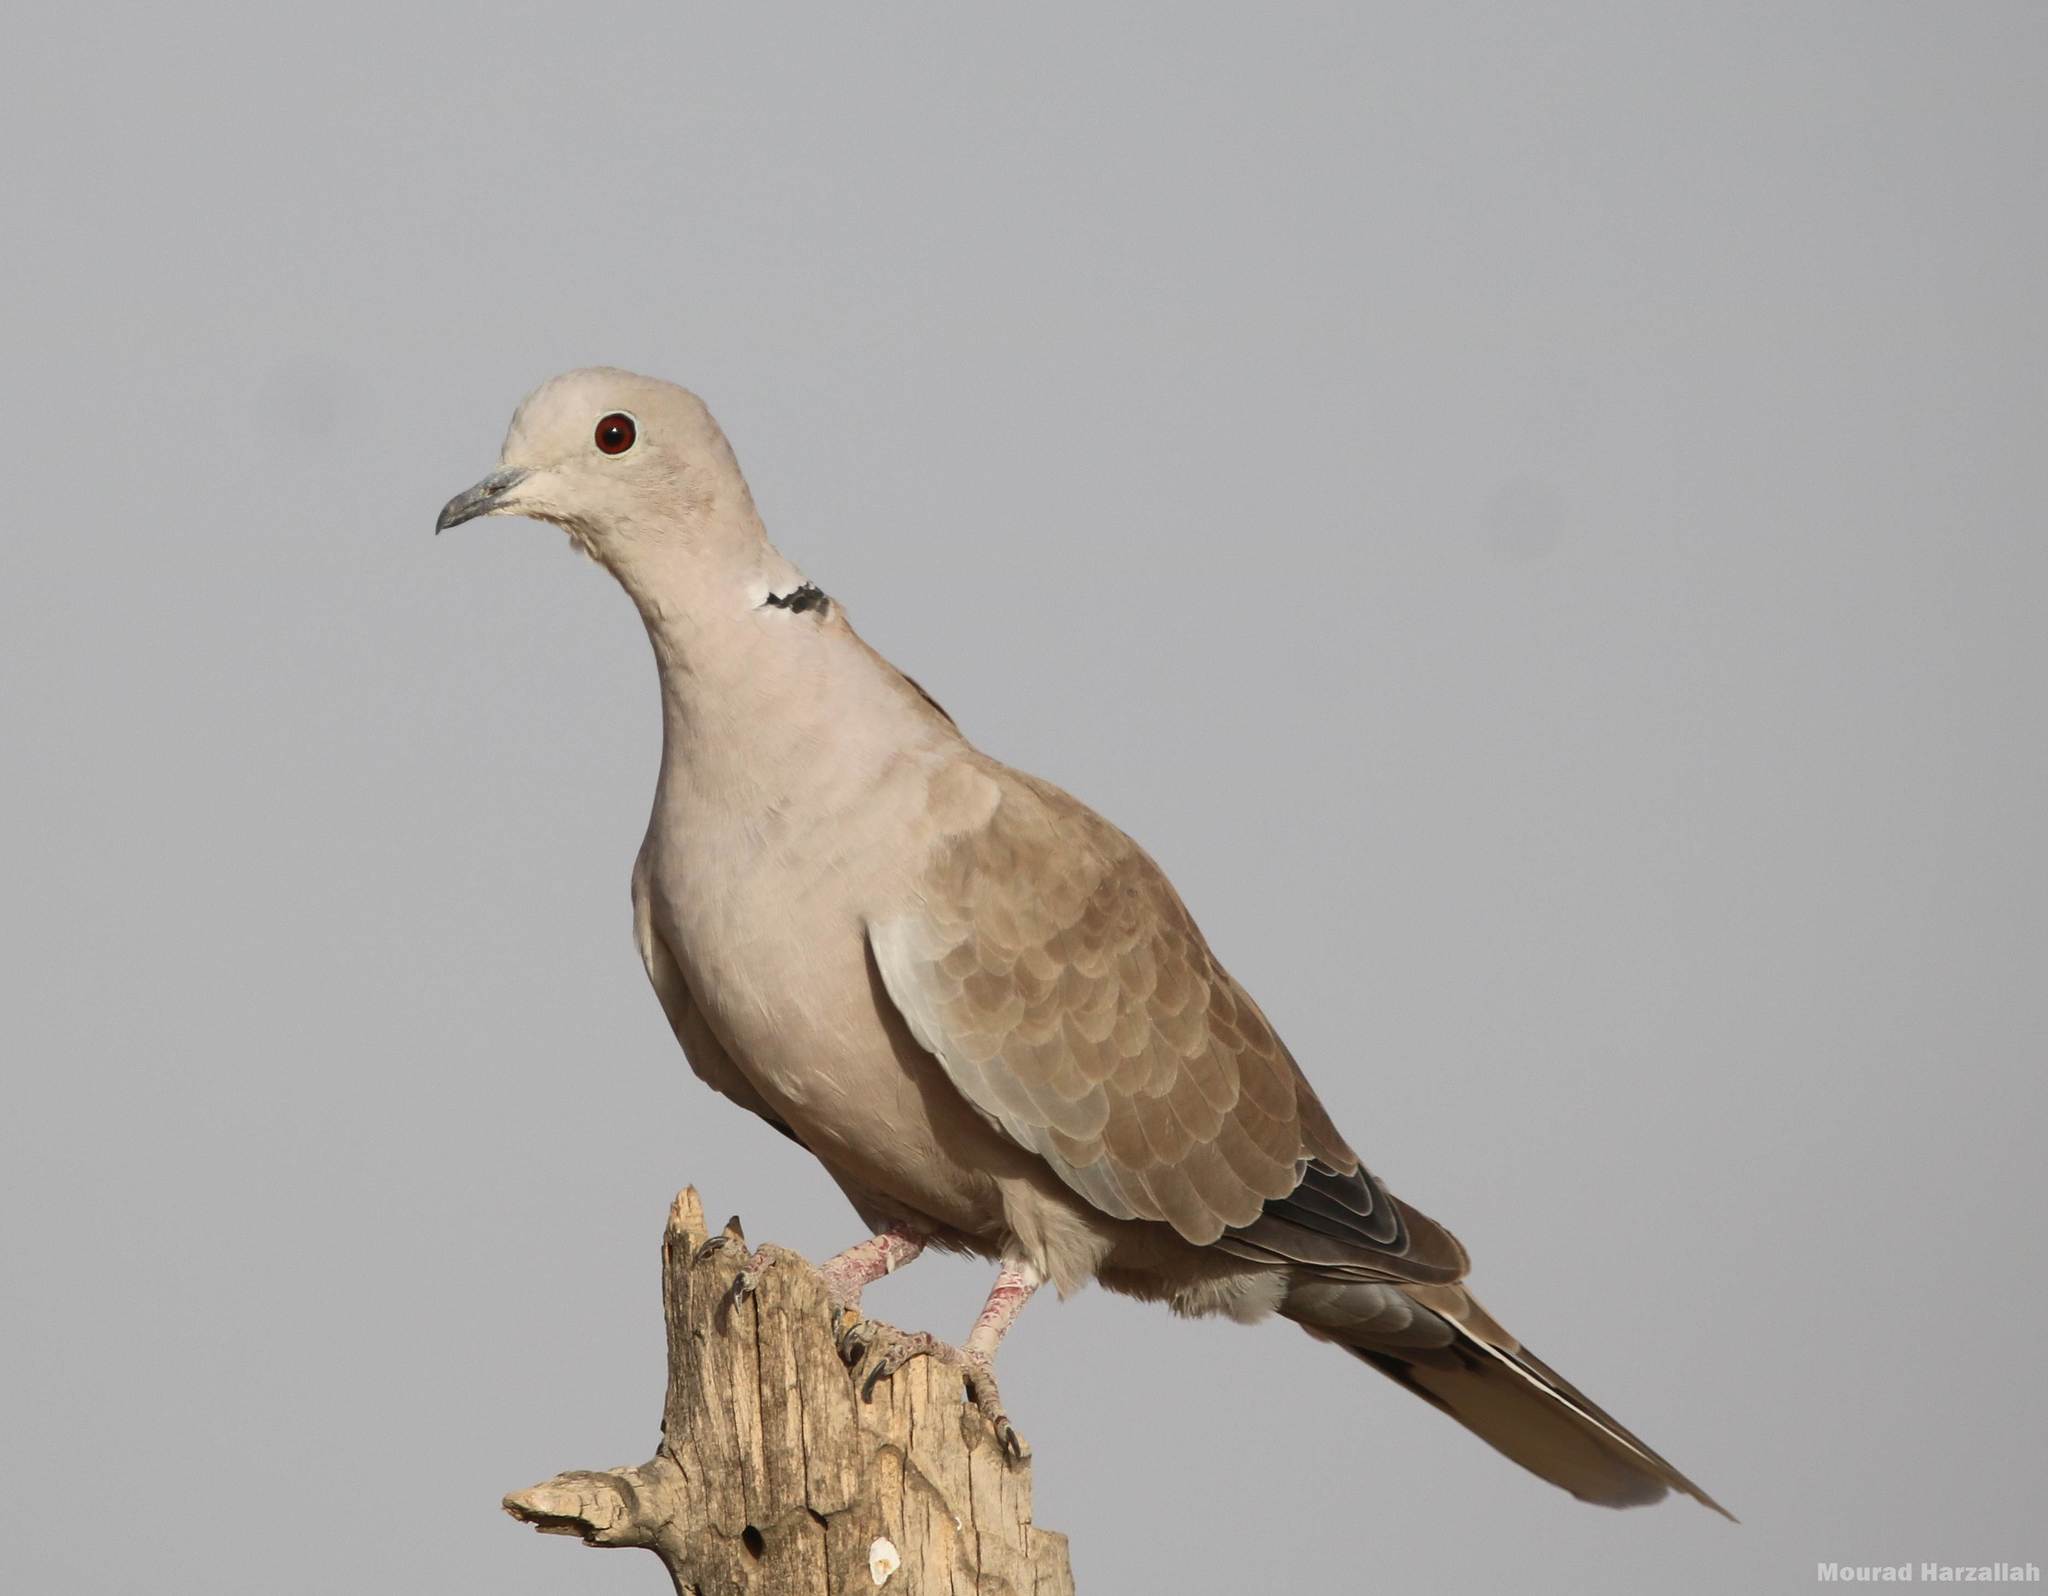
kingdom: Animalia
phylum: Chordata
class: Aves
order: Columbiformes
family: Columbidae
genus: Streptopelia
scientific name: Streptopelia decaocto
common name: Eurasian collared dove
